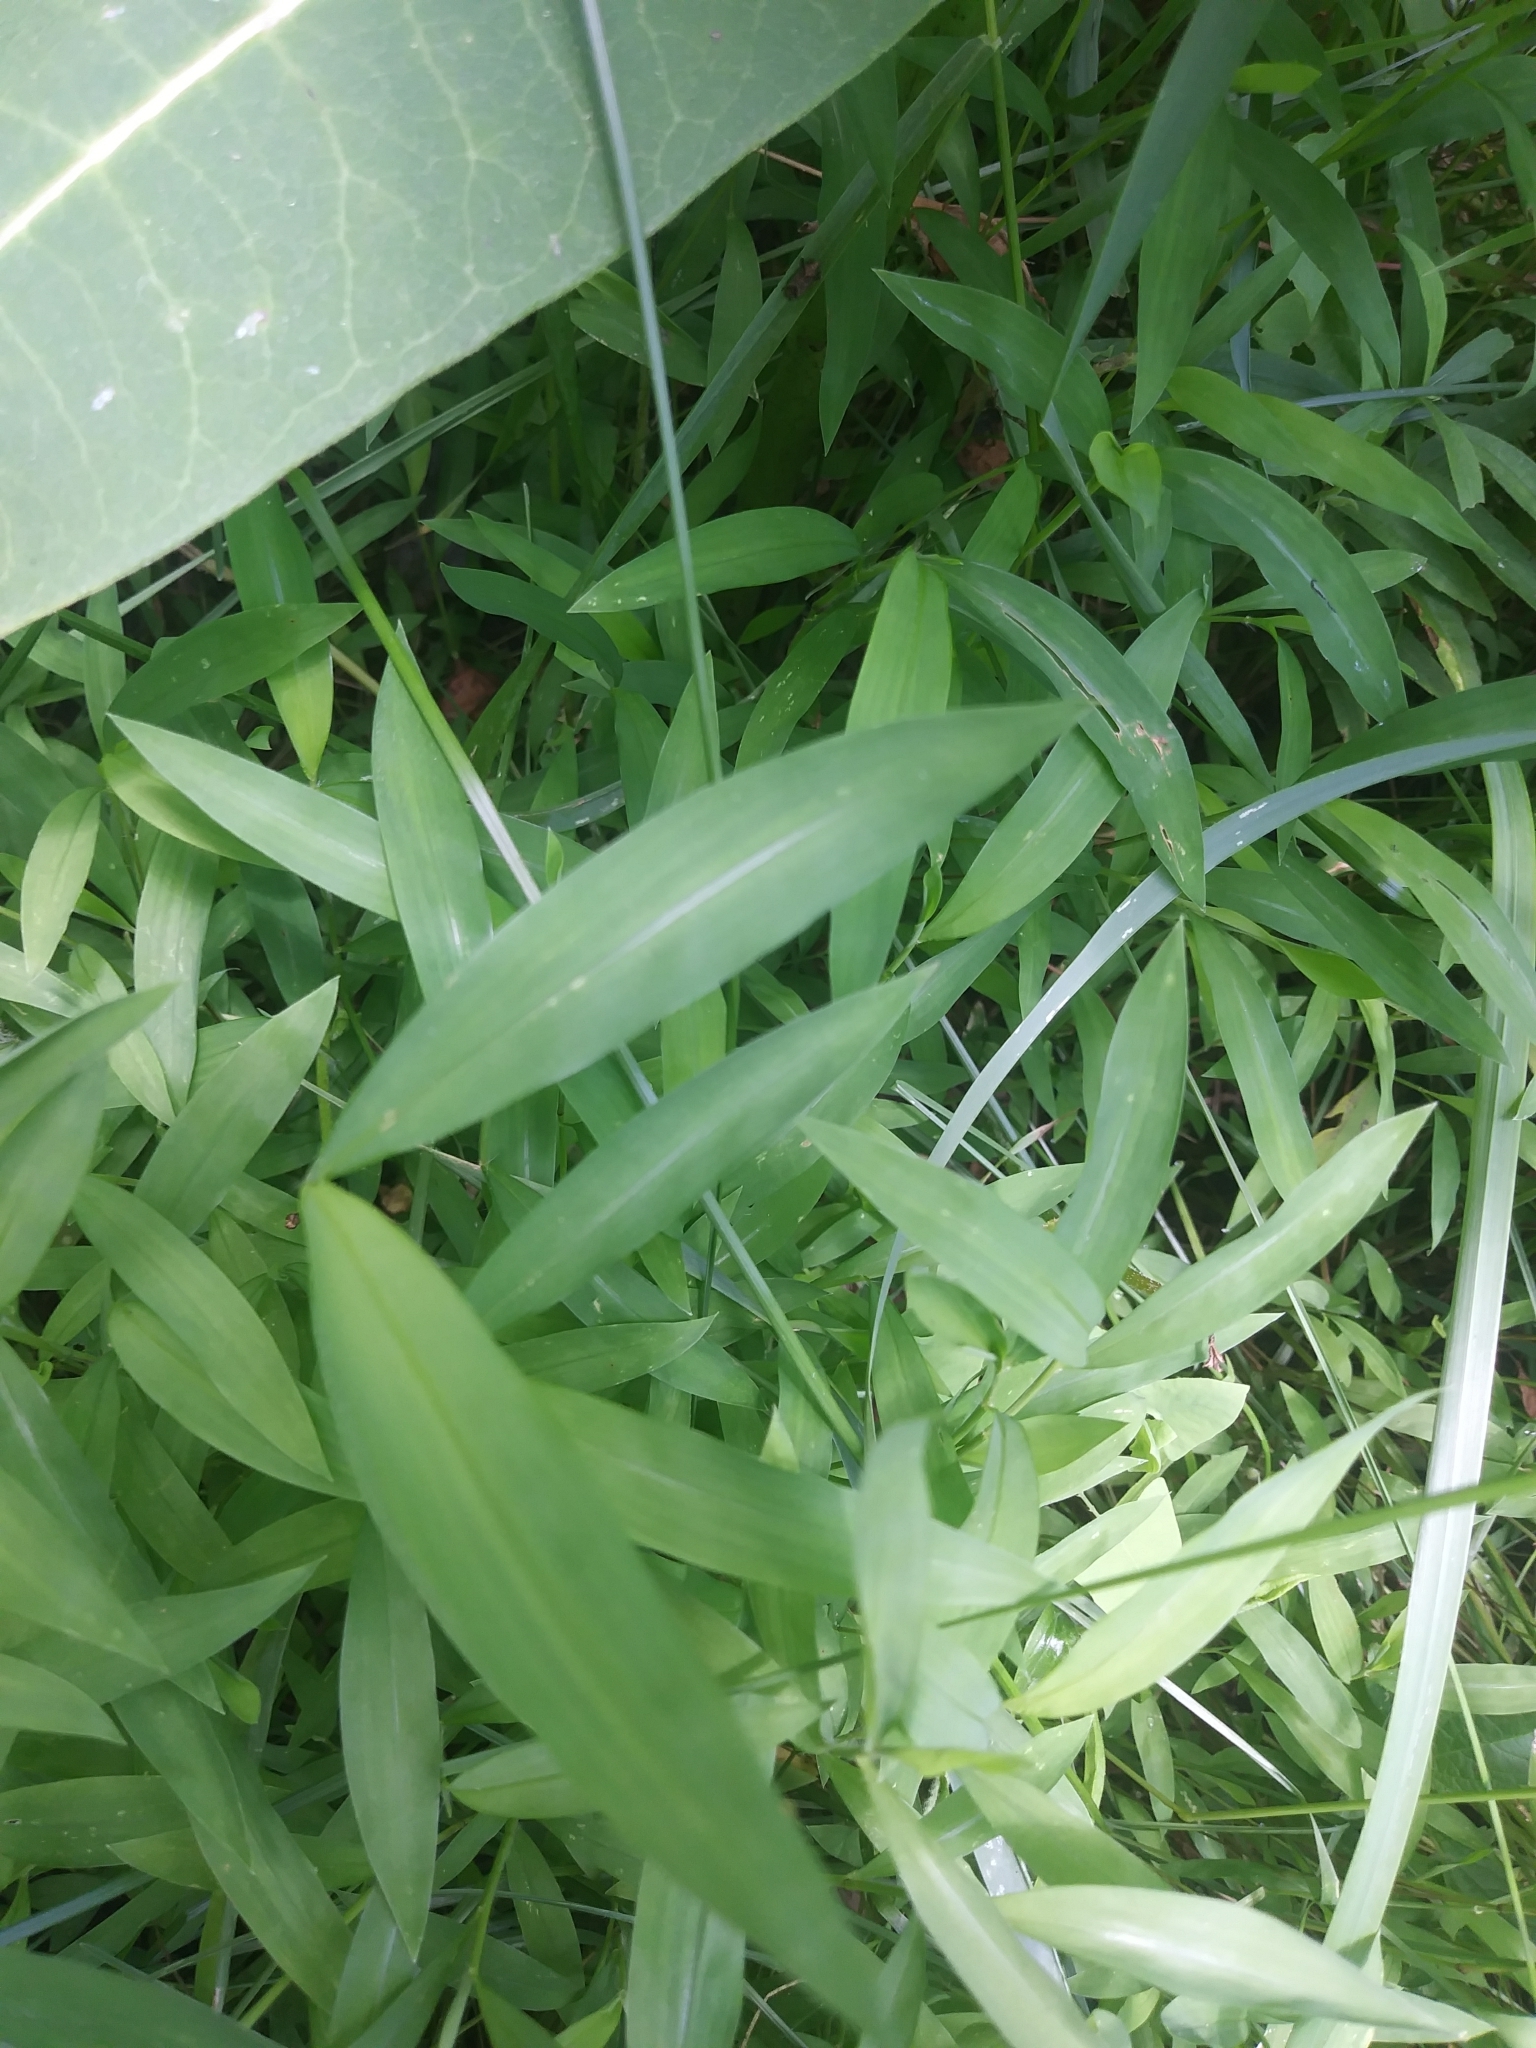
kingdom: Plantae
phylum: Tracheophyta
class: Liliopsida
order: Poales
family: Poaceae
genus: Microstegium
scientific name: Microstegium vimineum
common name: Japanese stiltgrass
